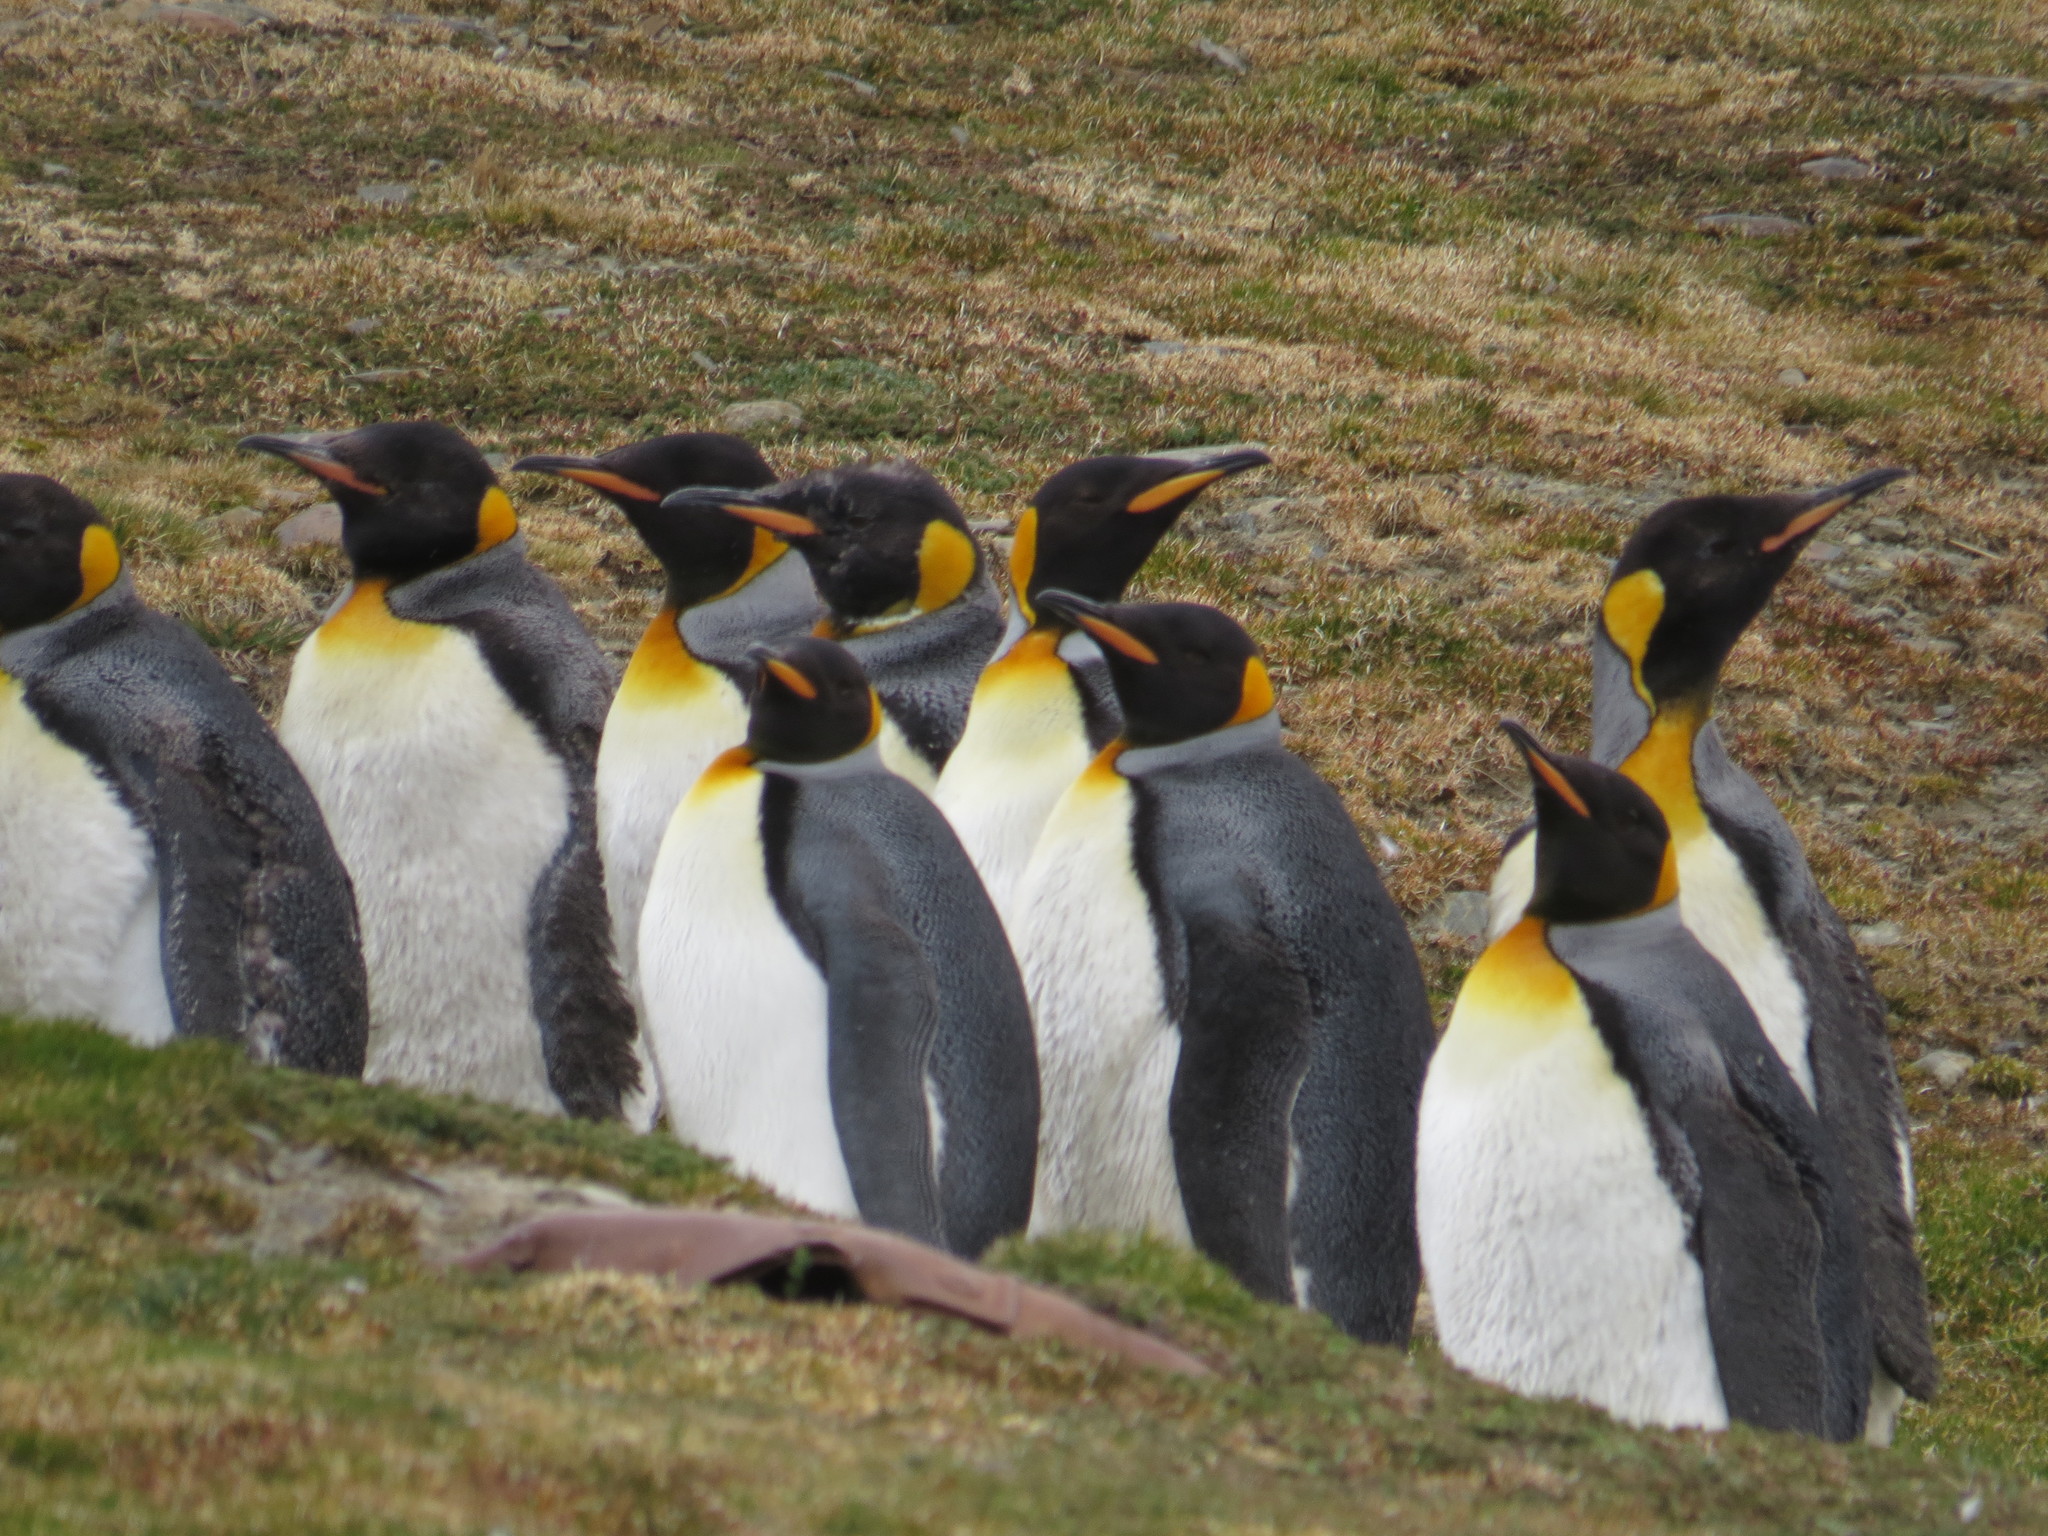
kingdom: Animalia
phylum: Chordata
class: Aves
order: Sphenisciformes
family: Spheniscidae
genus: Aptenodytes
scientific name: Aptenodytes patagonicus
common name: King penguin
